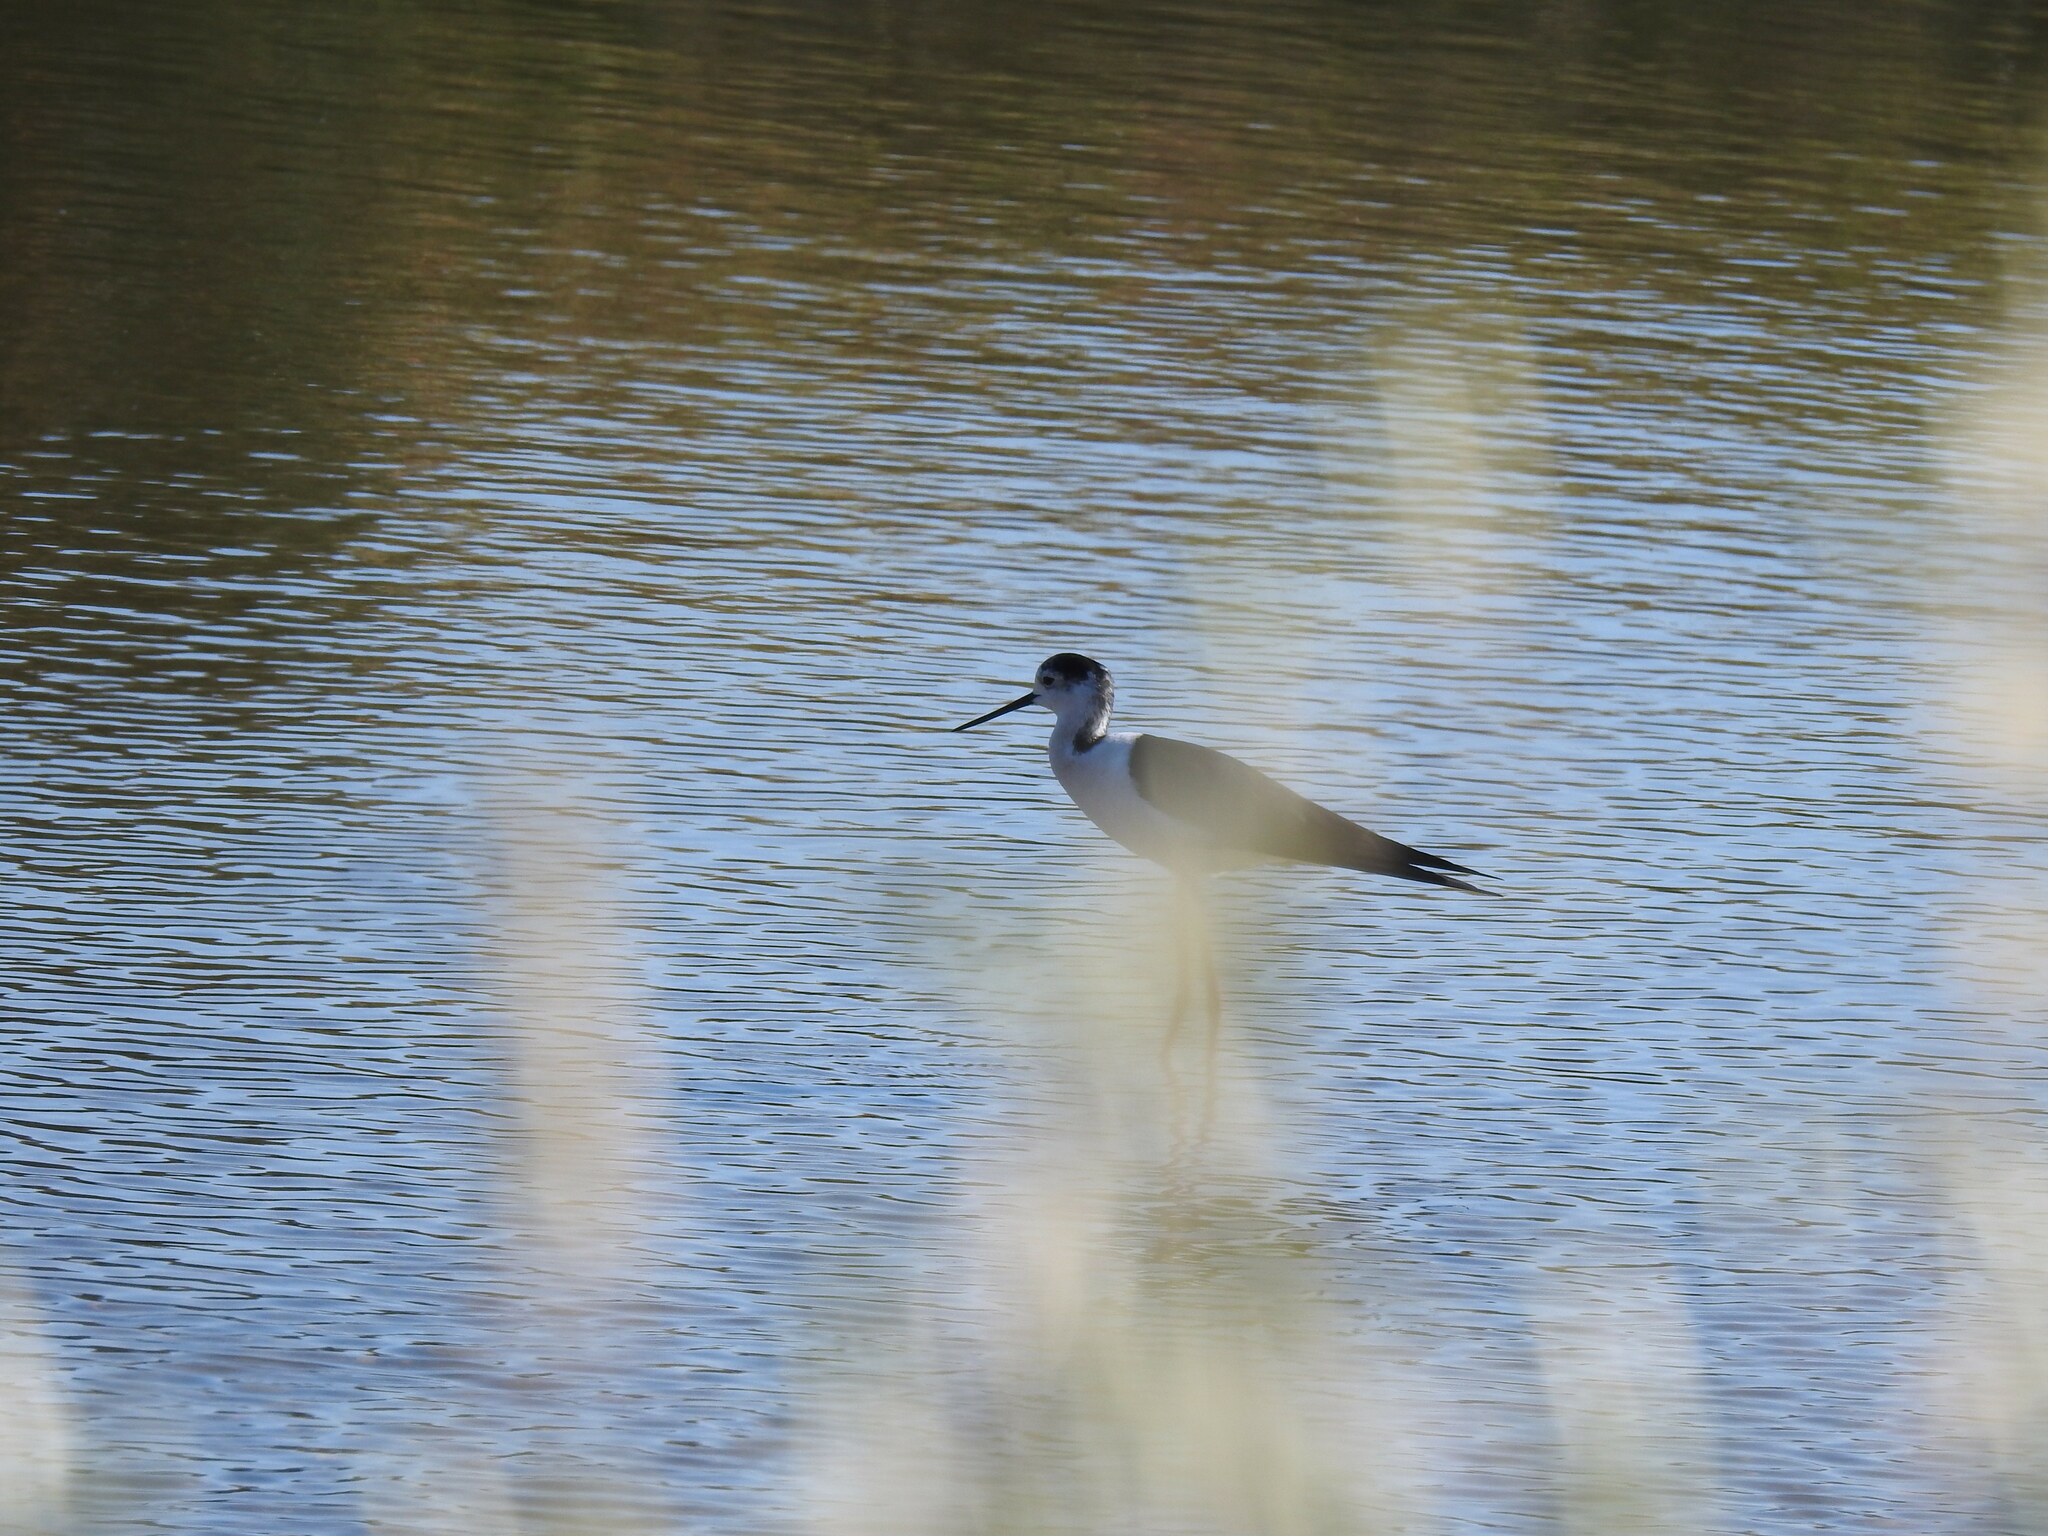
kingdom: Animalia
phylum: Chordata
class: Aves
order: Charadriiformes
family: Recurvirostridae
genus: Himantopus
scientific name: Himantopus himantopus
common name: Black-winged stilt
